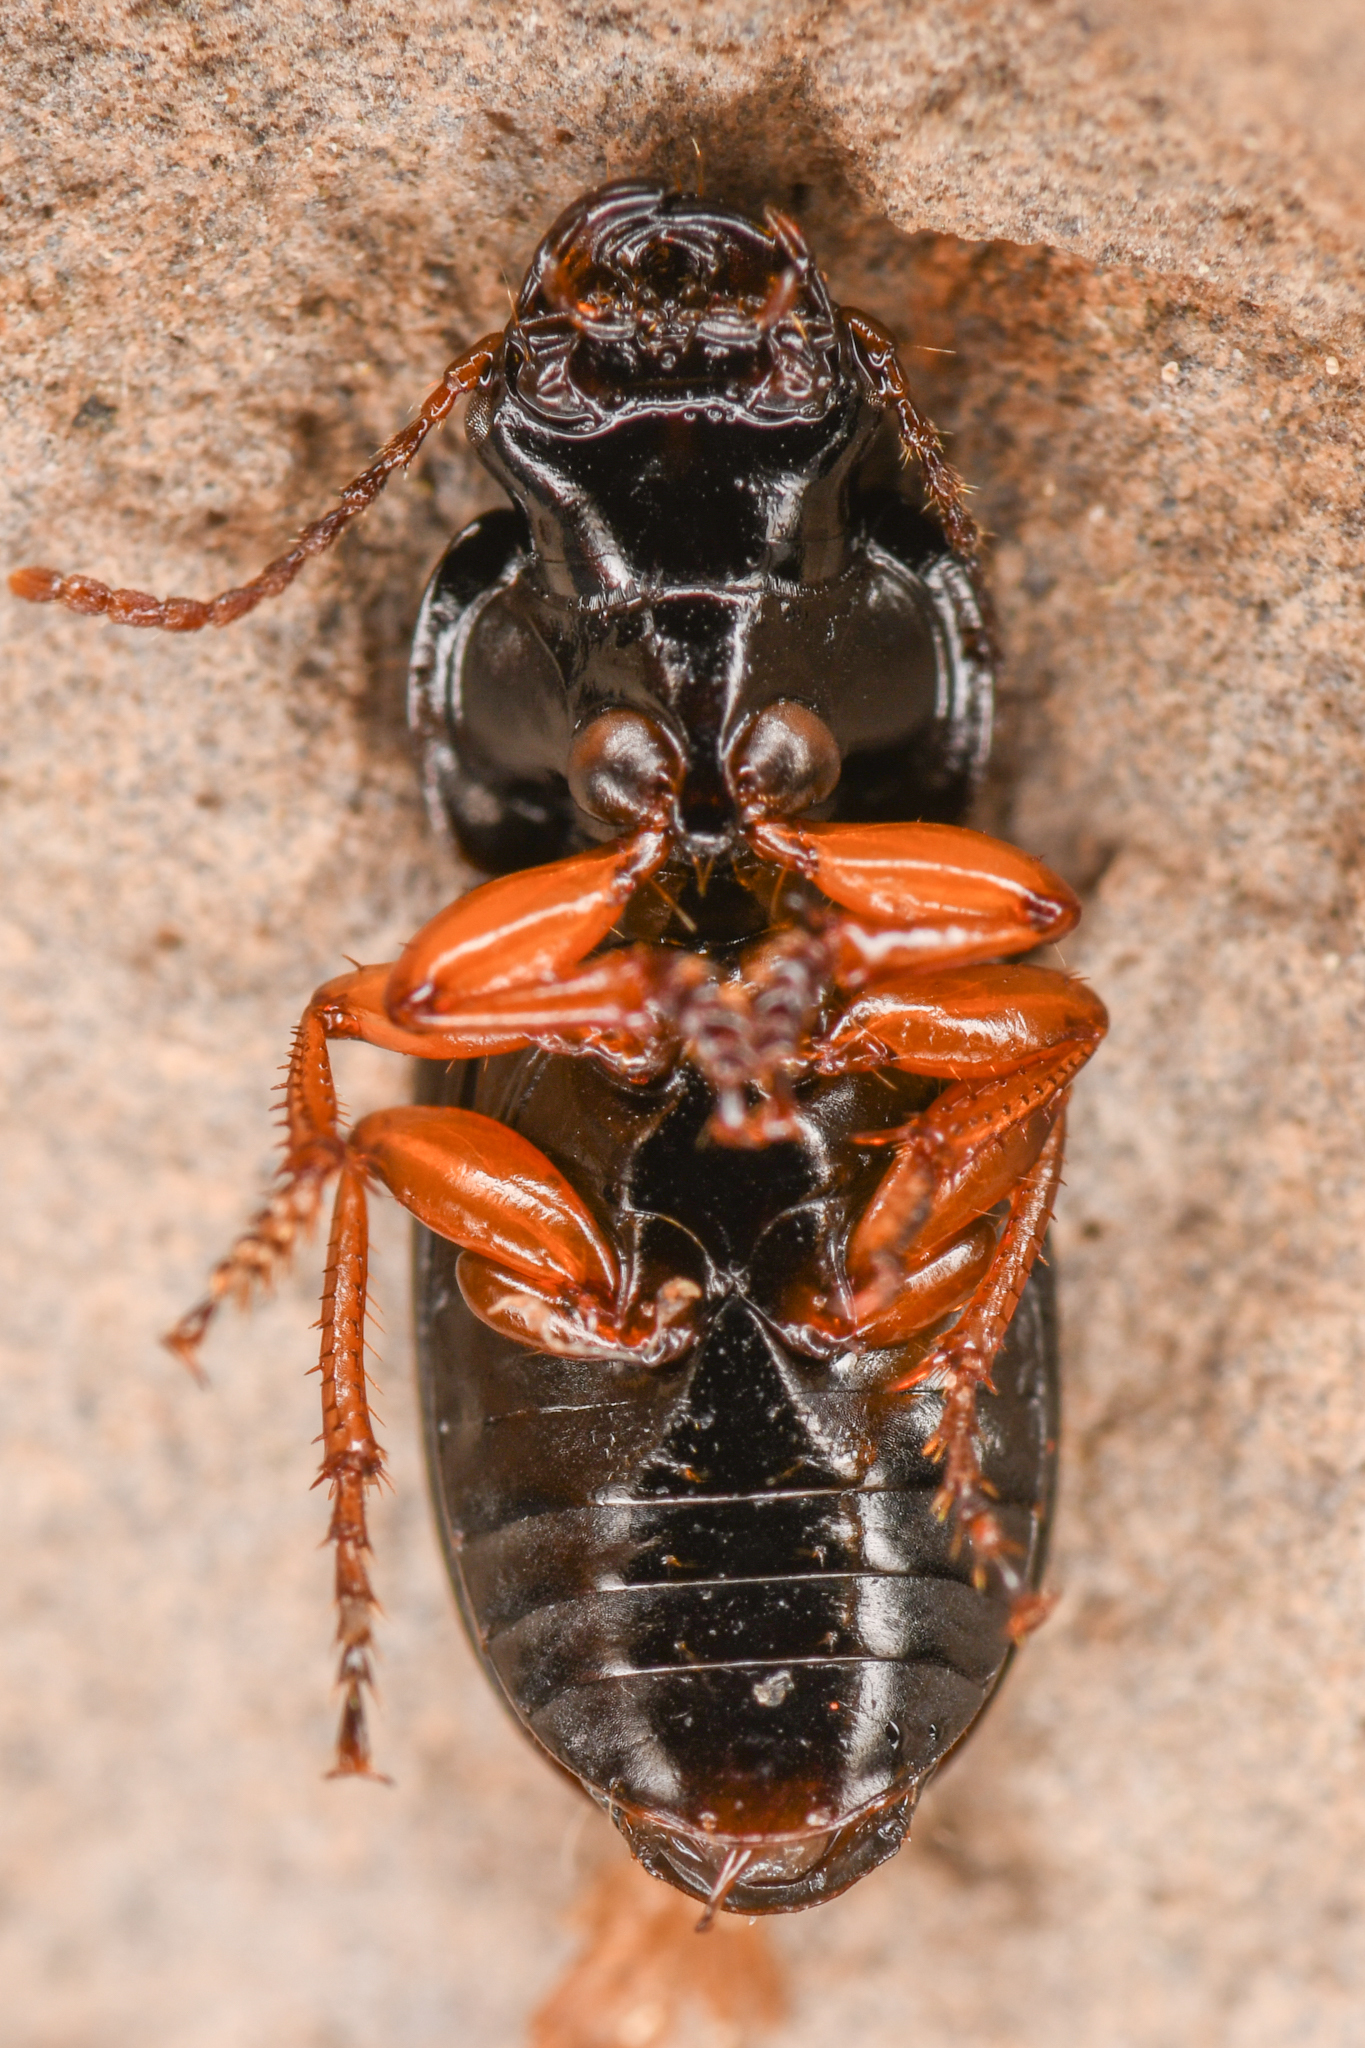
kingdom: Animalia
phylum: Arthropoda
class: Insecta
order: Coleoptera
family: Carabidae
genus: Harpalus
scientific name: Harpalus nigritarsis
